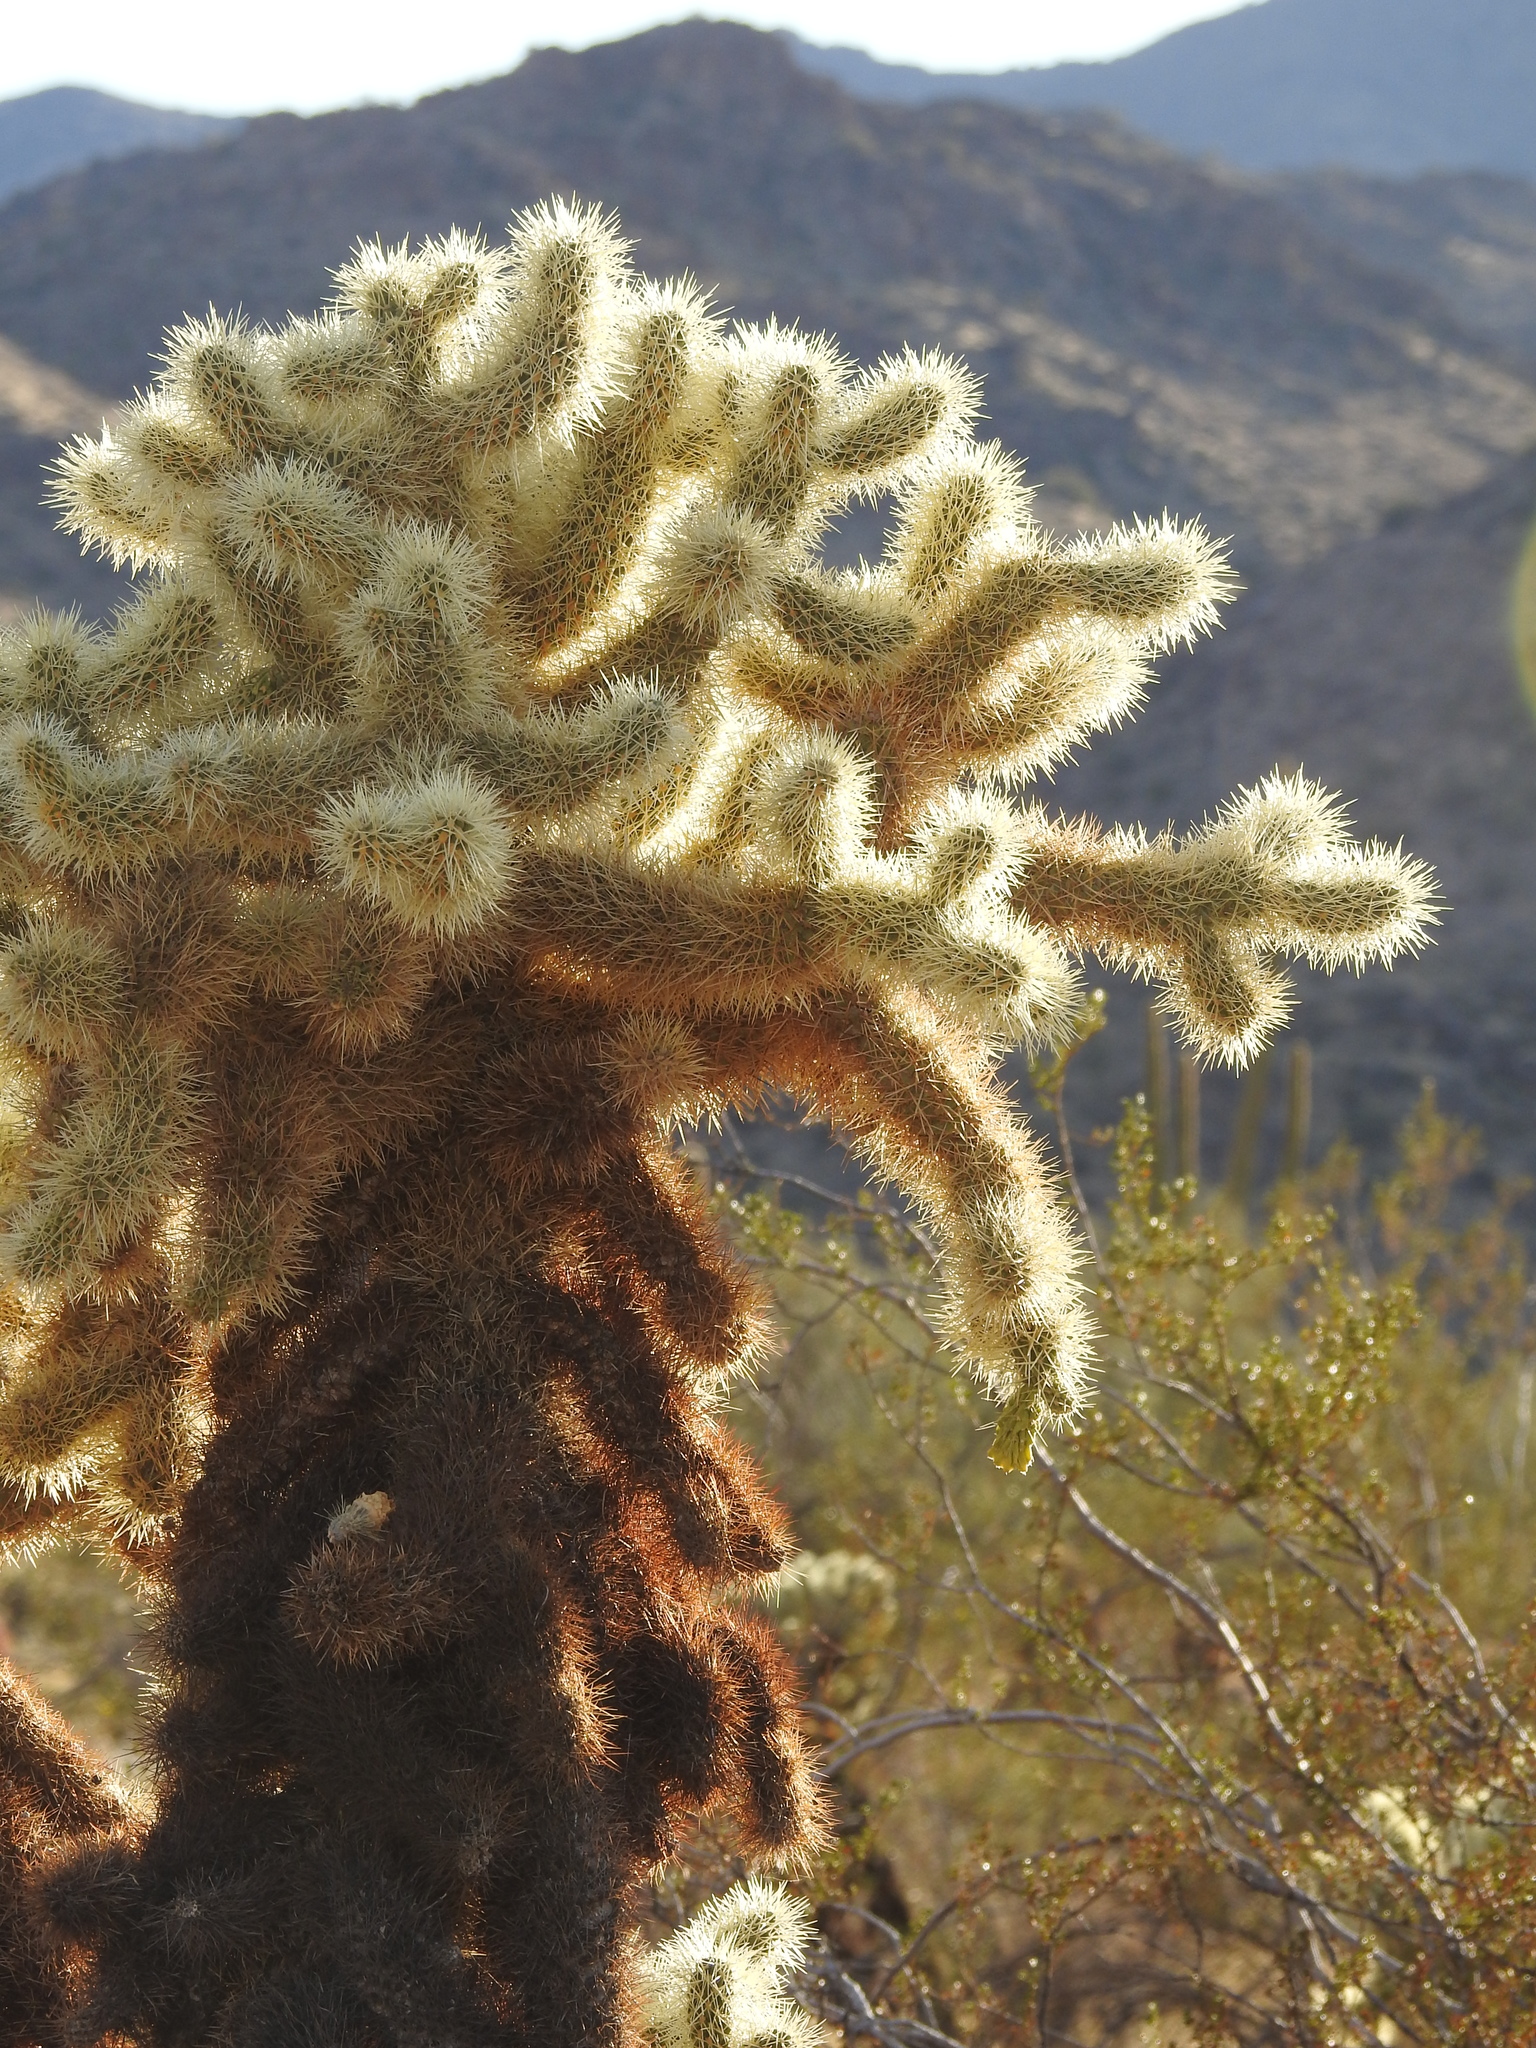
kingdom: Plantae
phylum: Tracheophyta
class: Magnoliopsida
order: Caryophyllales
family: Cactaceae
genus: Cylindropuntia
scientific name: Cylindropuntia fosbergii
